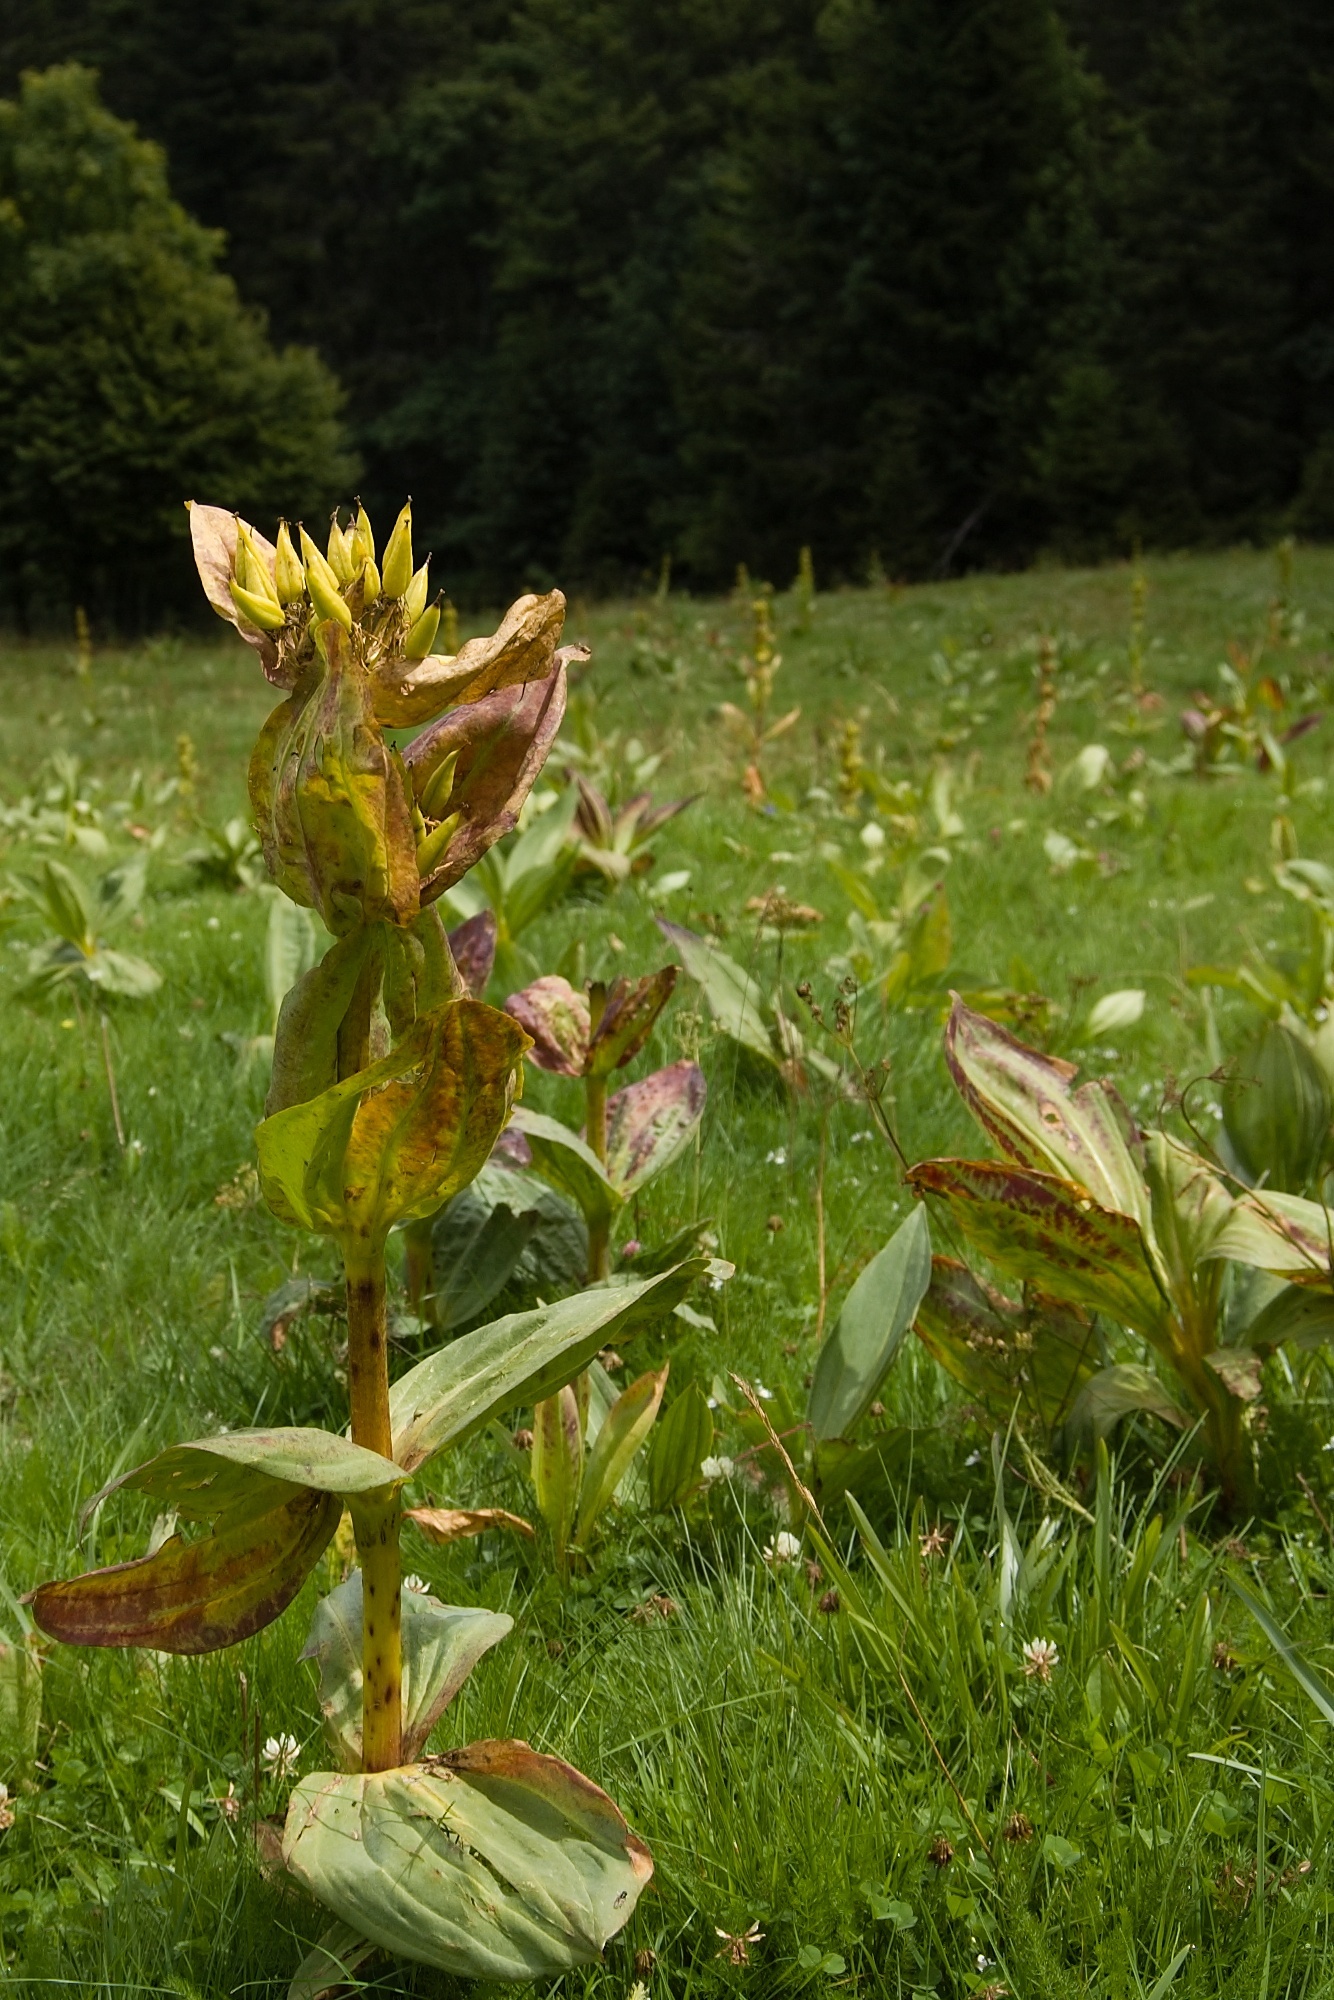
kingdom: Plantae
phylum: Tracheophyta
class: Magnoliopsida
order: Gentianales
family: Gentianaceae
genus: Gentiana
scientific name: Gentiana lutea
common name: Great yellow gentian
